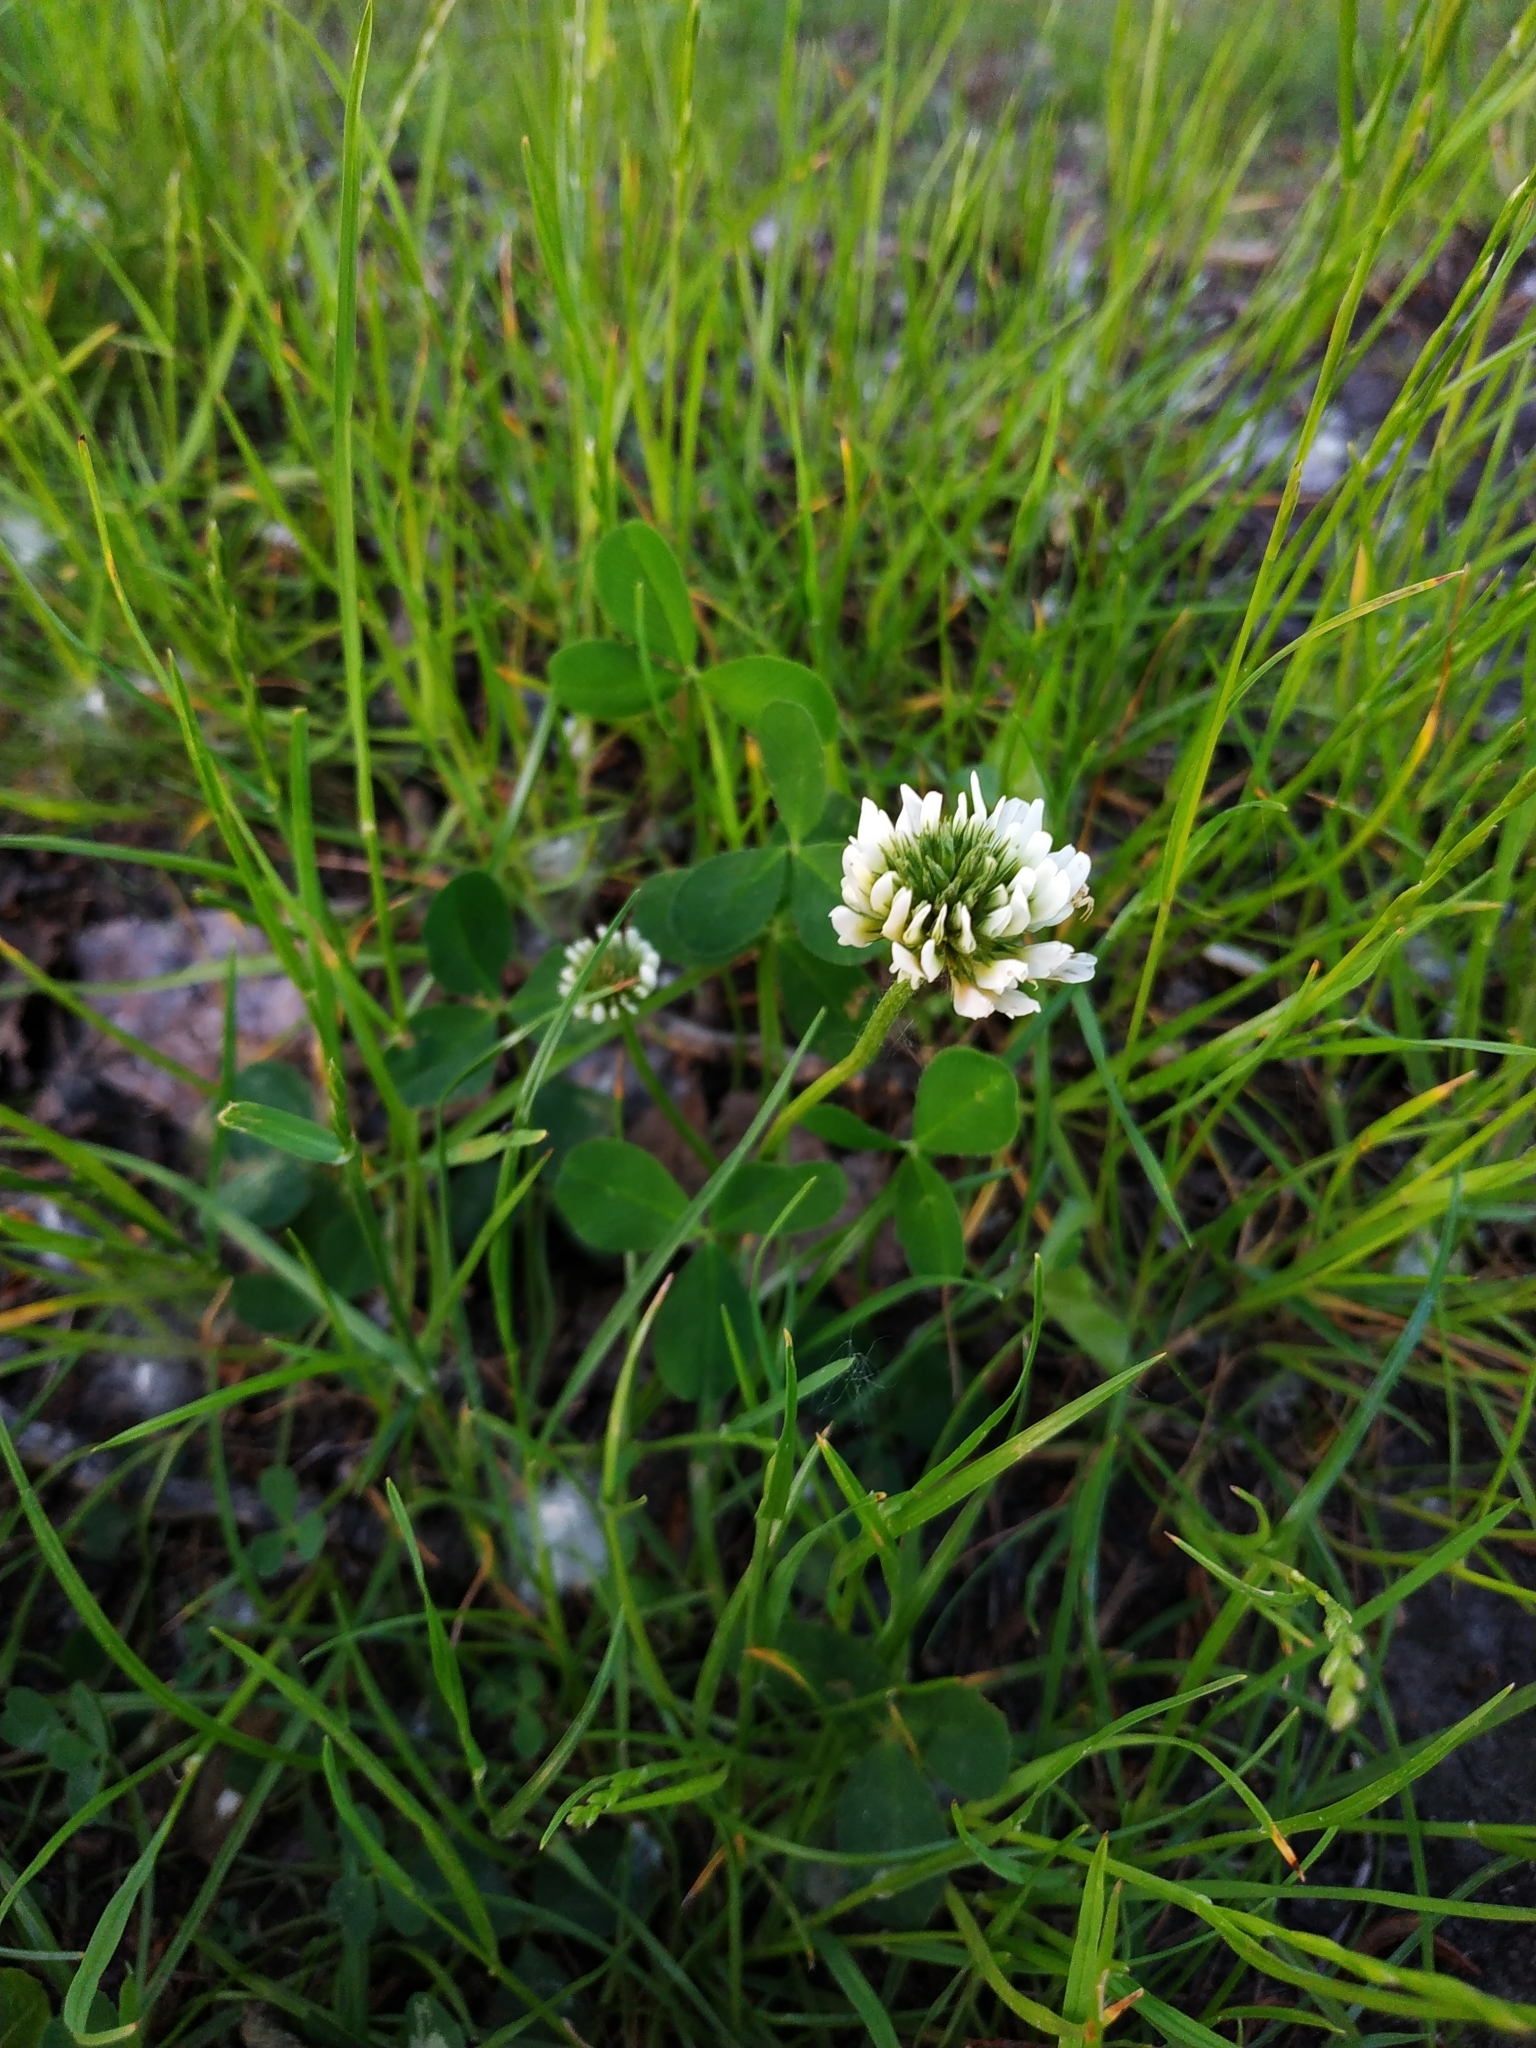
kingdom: Plantae
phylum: Tracheophyta
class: Magnoliopsida
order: Fabales
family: Fabaceae
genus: Trifolium
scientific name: Trifolium repens
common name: White clover
